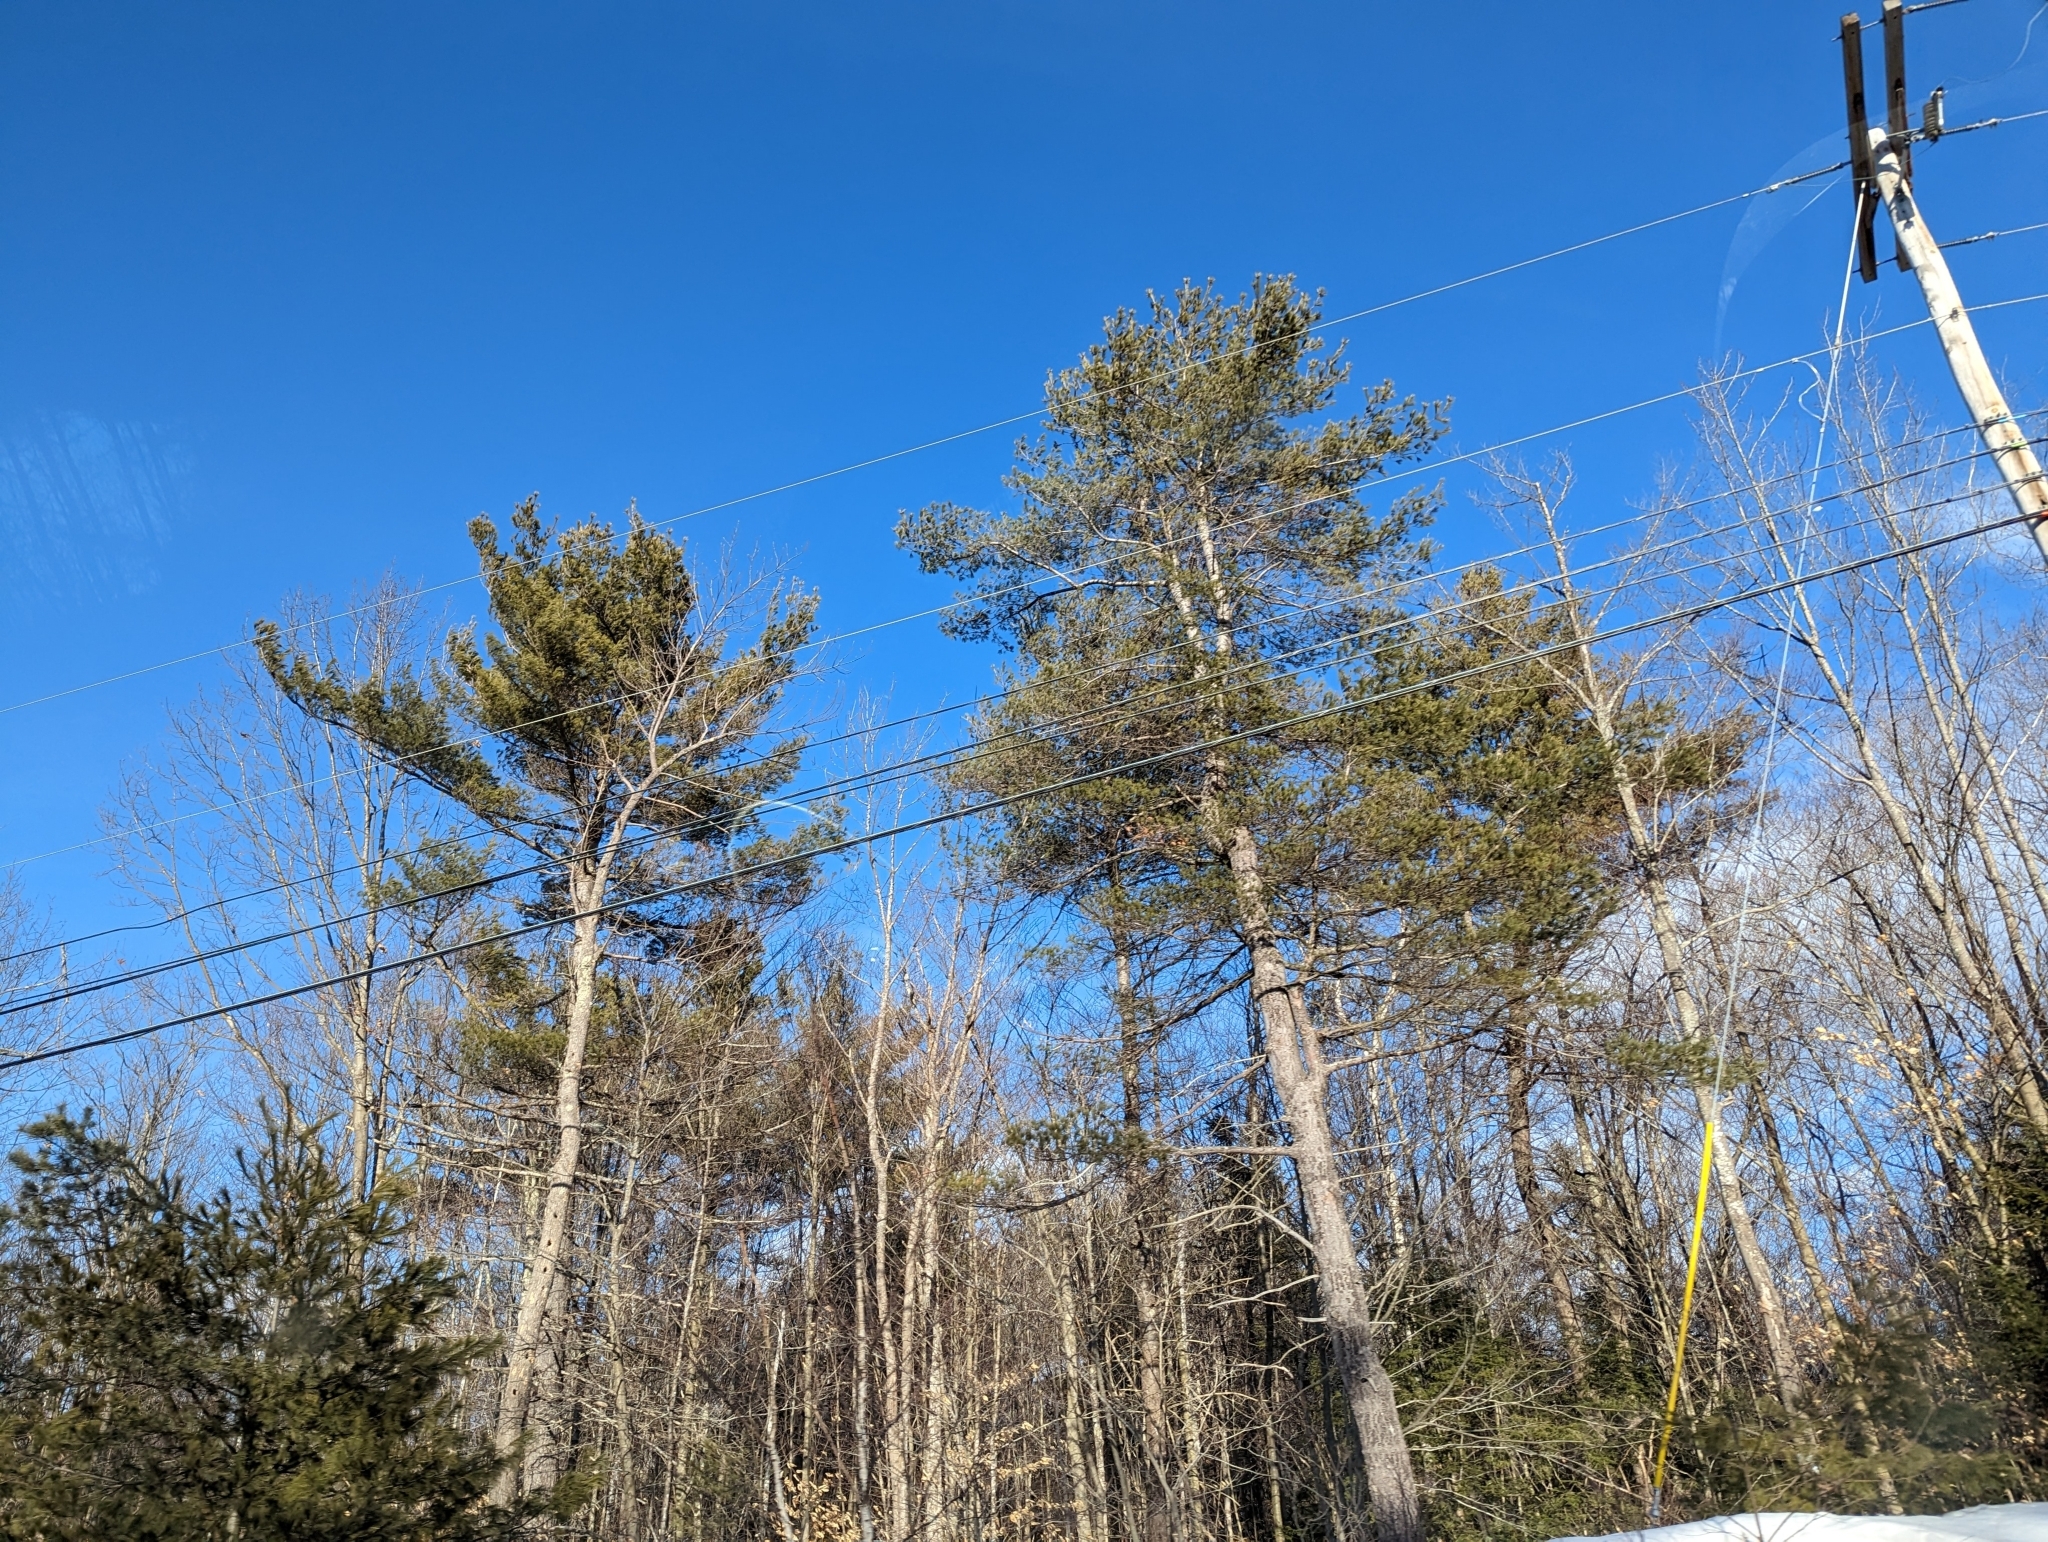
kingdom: Plantae
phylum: Tracheophyta
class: Pinopsida
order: Pinales
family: Pinaceae
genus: Pinus
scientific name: Pinus strobus
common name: Weymouth pine
